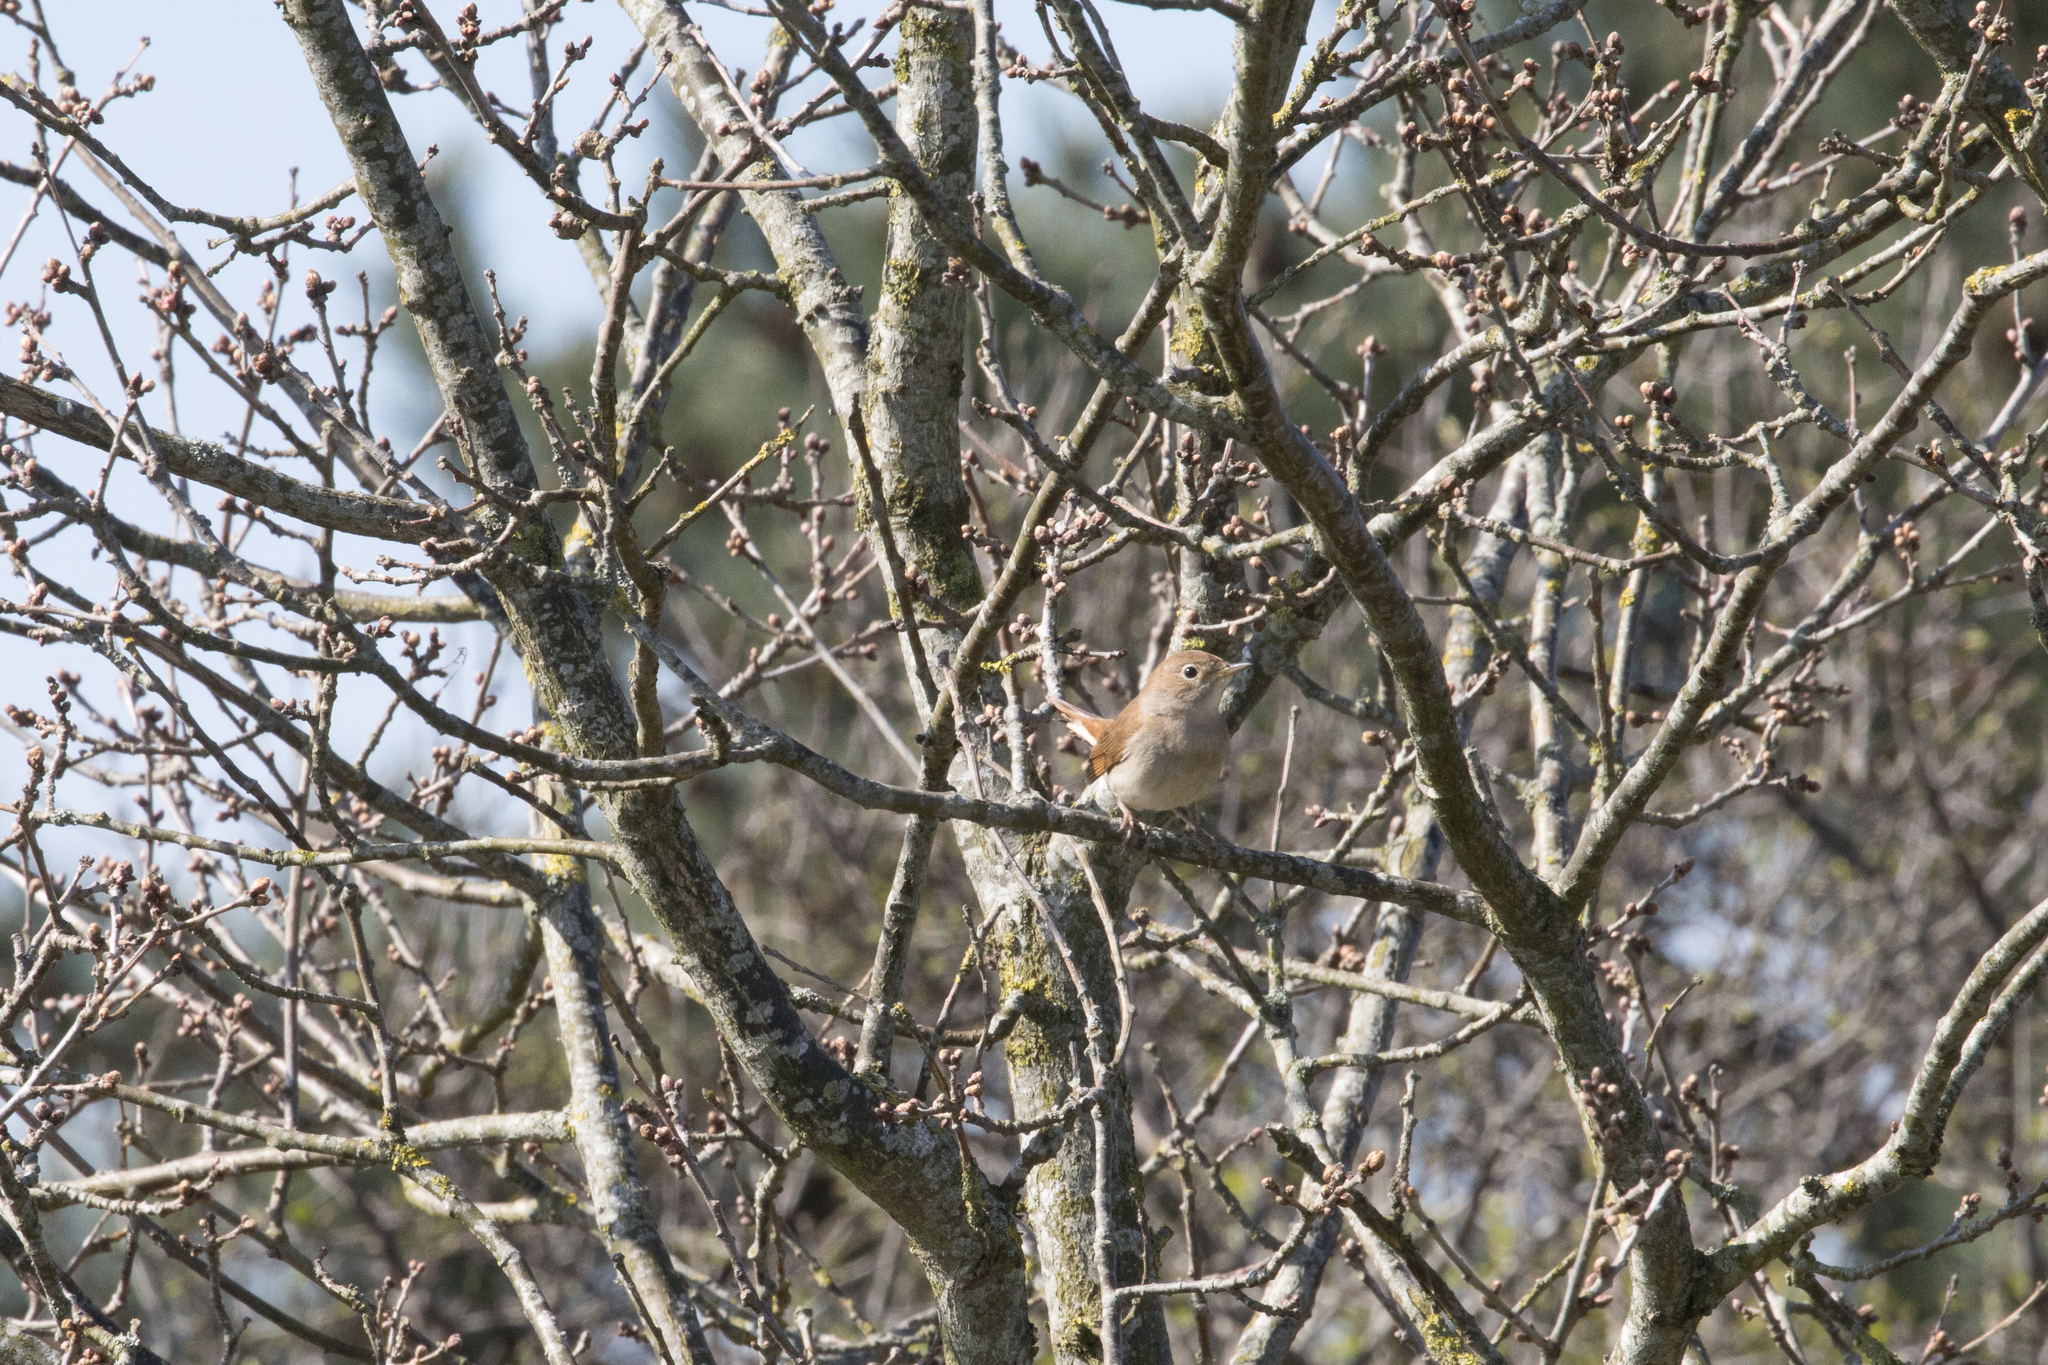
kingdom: Animalia
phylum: Chordata
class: Aves
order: Passeriformes
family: Muscicapidae
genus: Luscinia
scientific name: Luscinia megarhynchos
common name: Common nightingale
